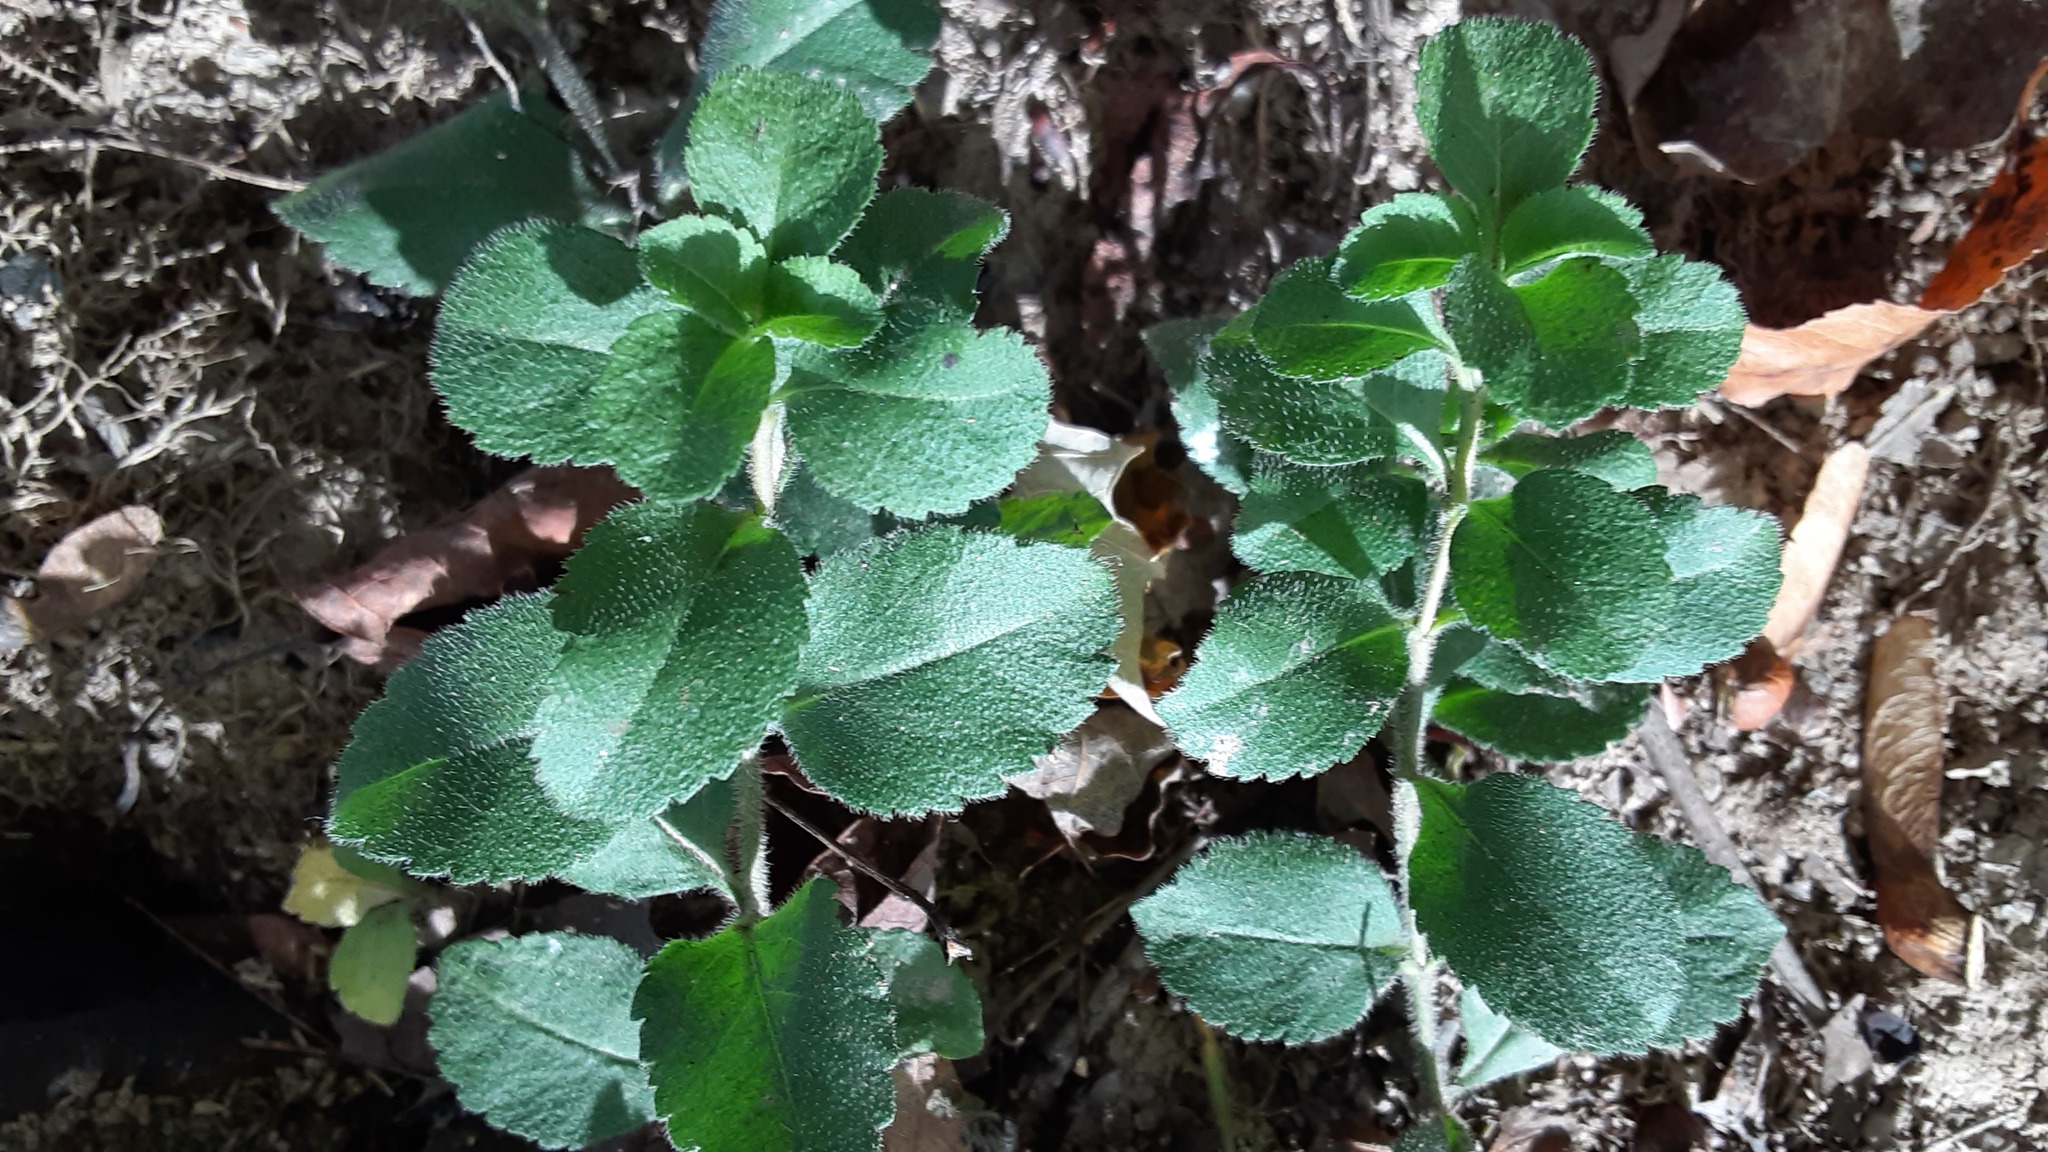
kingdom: Plantae
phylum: Tracheophyta
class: Magnoliopsida
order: Lamiales
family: Plantaginaceae
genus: Veronica
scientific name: Veronica officinalis
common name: Common speedwell
